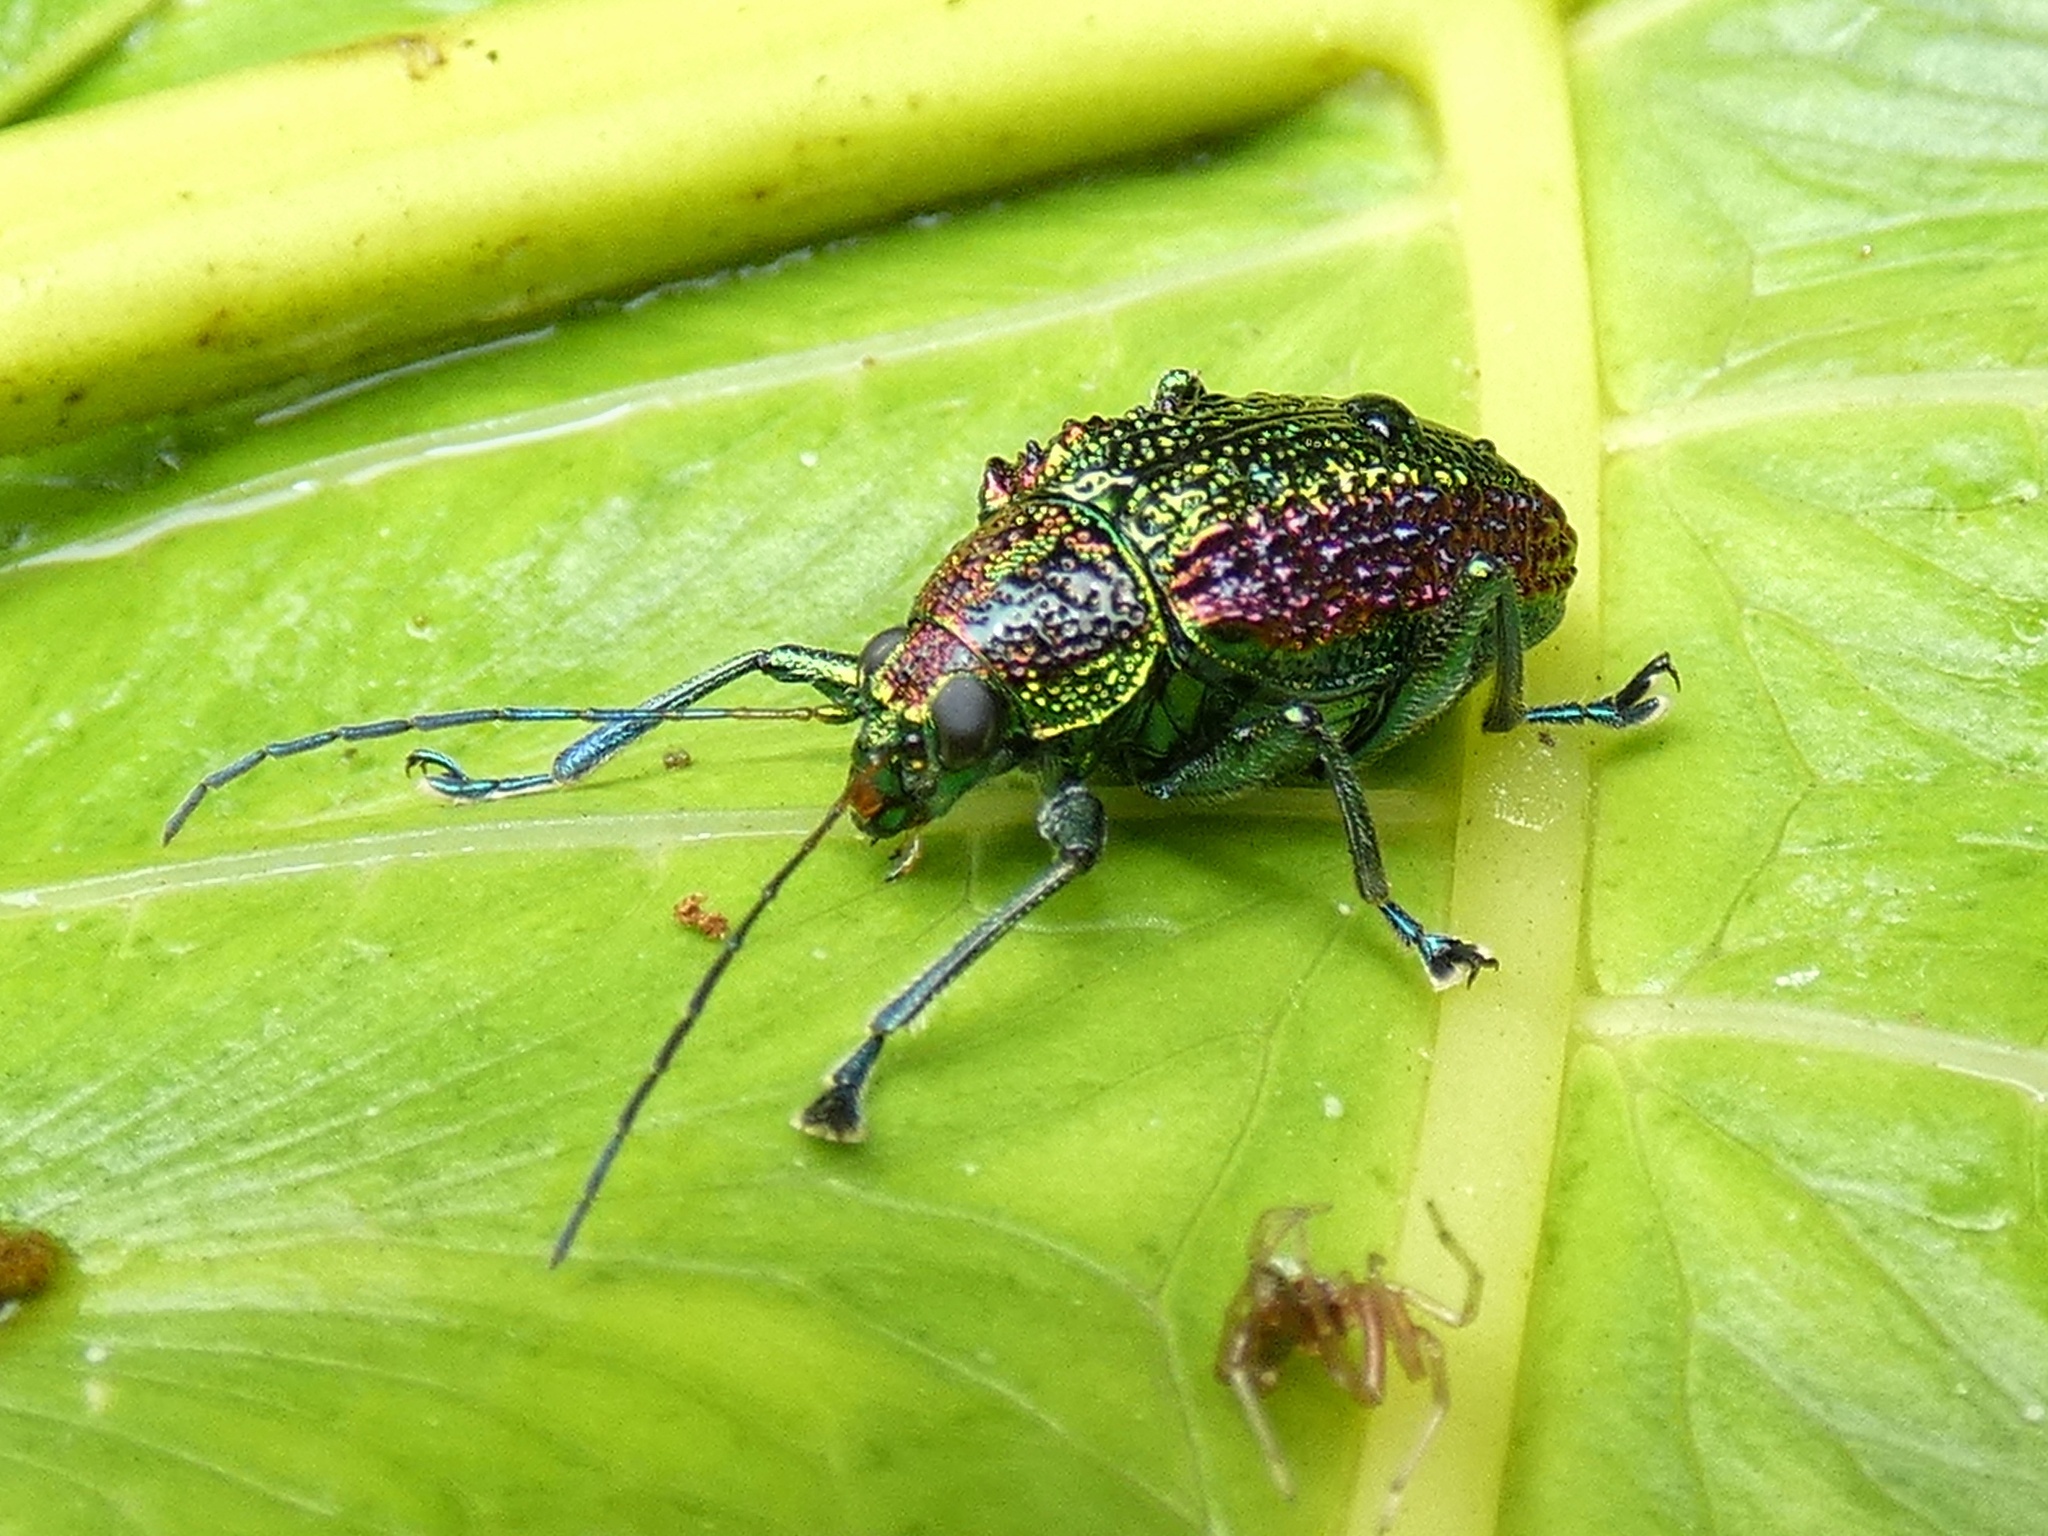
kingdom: Animalia
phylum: Arthropoda
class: Insecta
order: Coleoptera
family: Chrysomelidae
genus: Adorea
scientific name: Adorea
